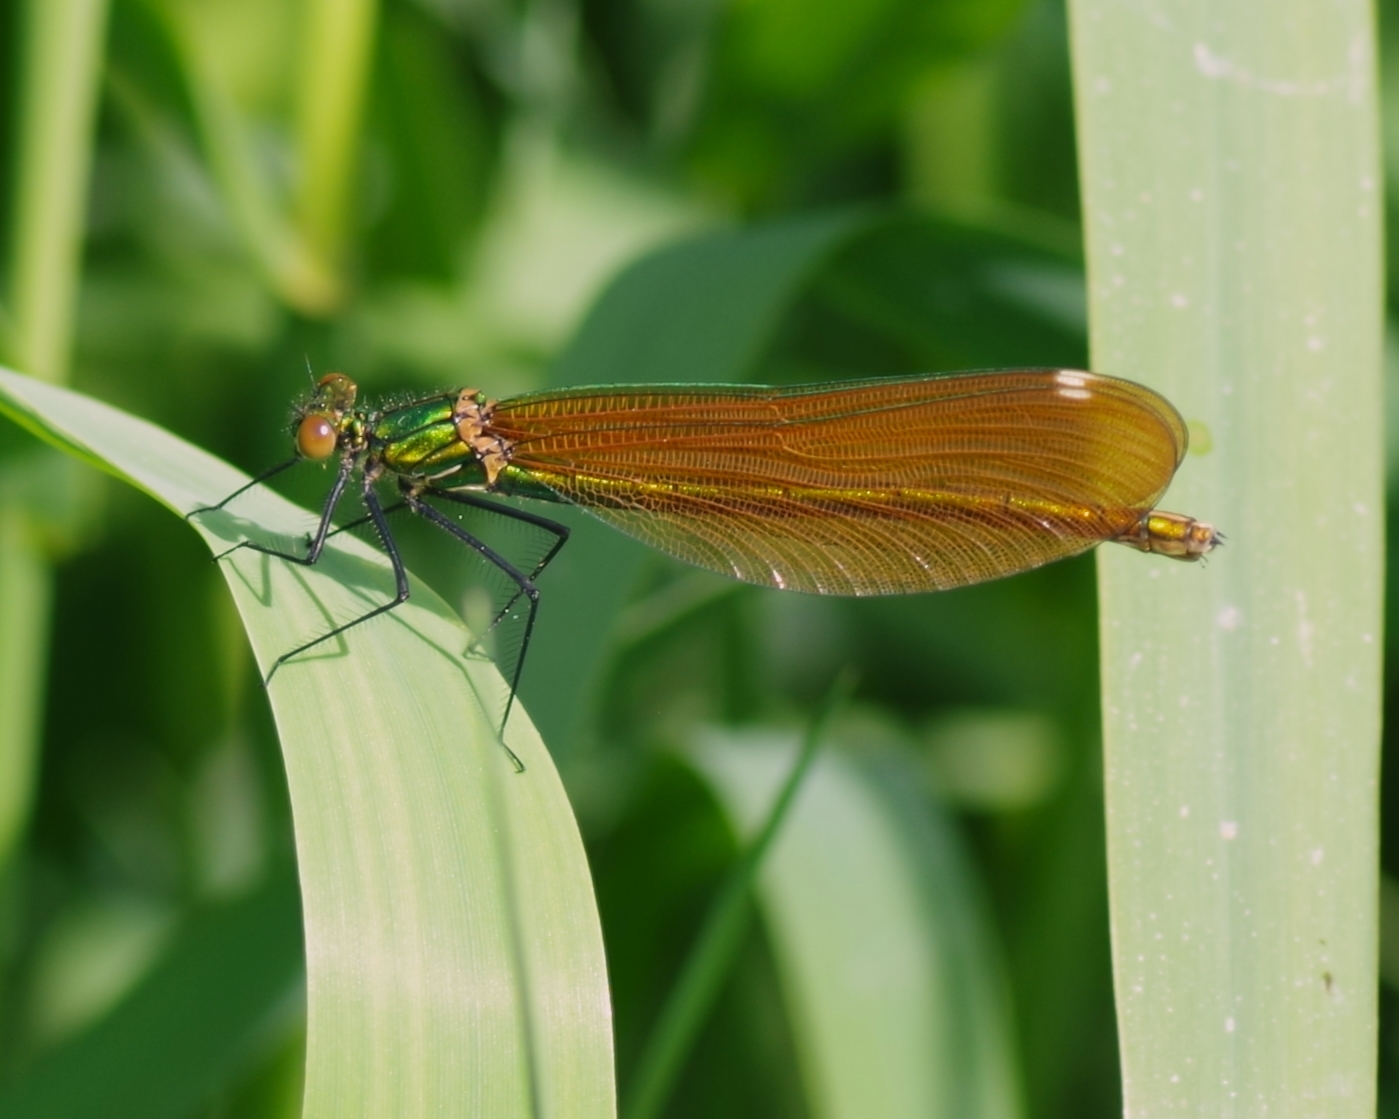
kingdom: Animalia
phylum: Arthropoda
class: Insecta
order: Odonata
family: Calopterygidae
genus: Calopteryx
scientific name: Calopteryx virgo
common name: Beautiful demoiselle
